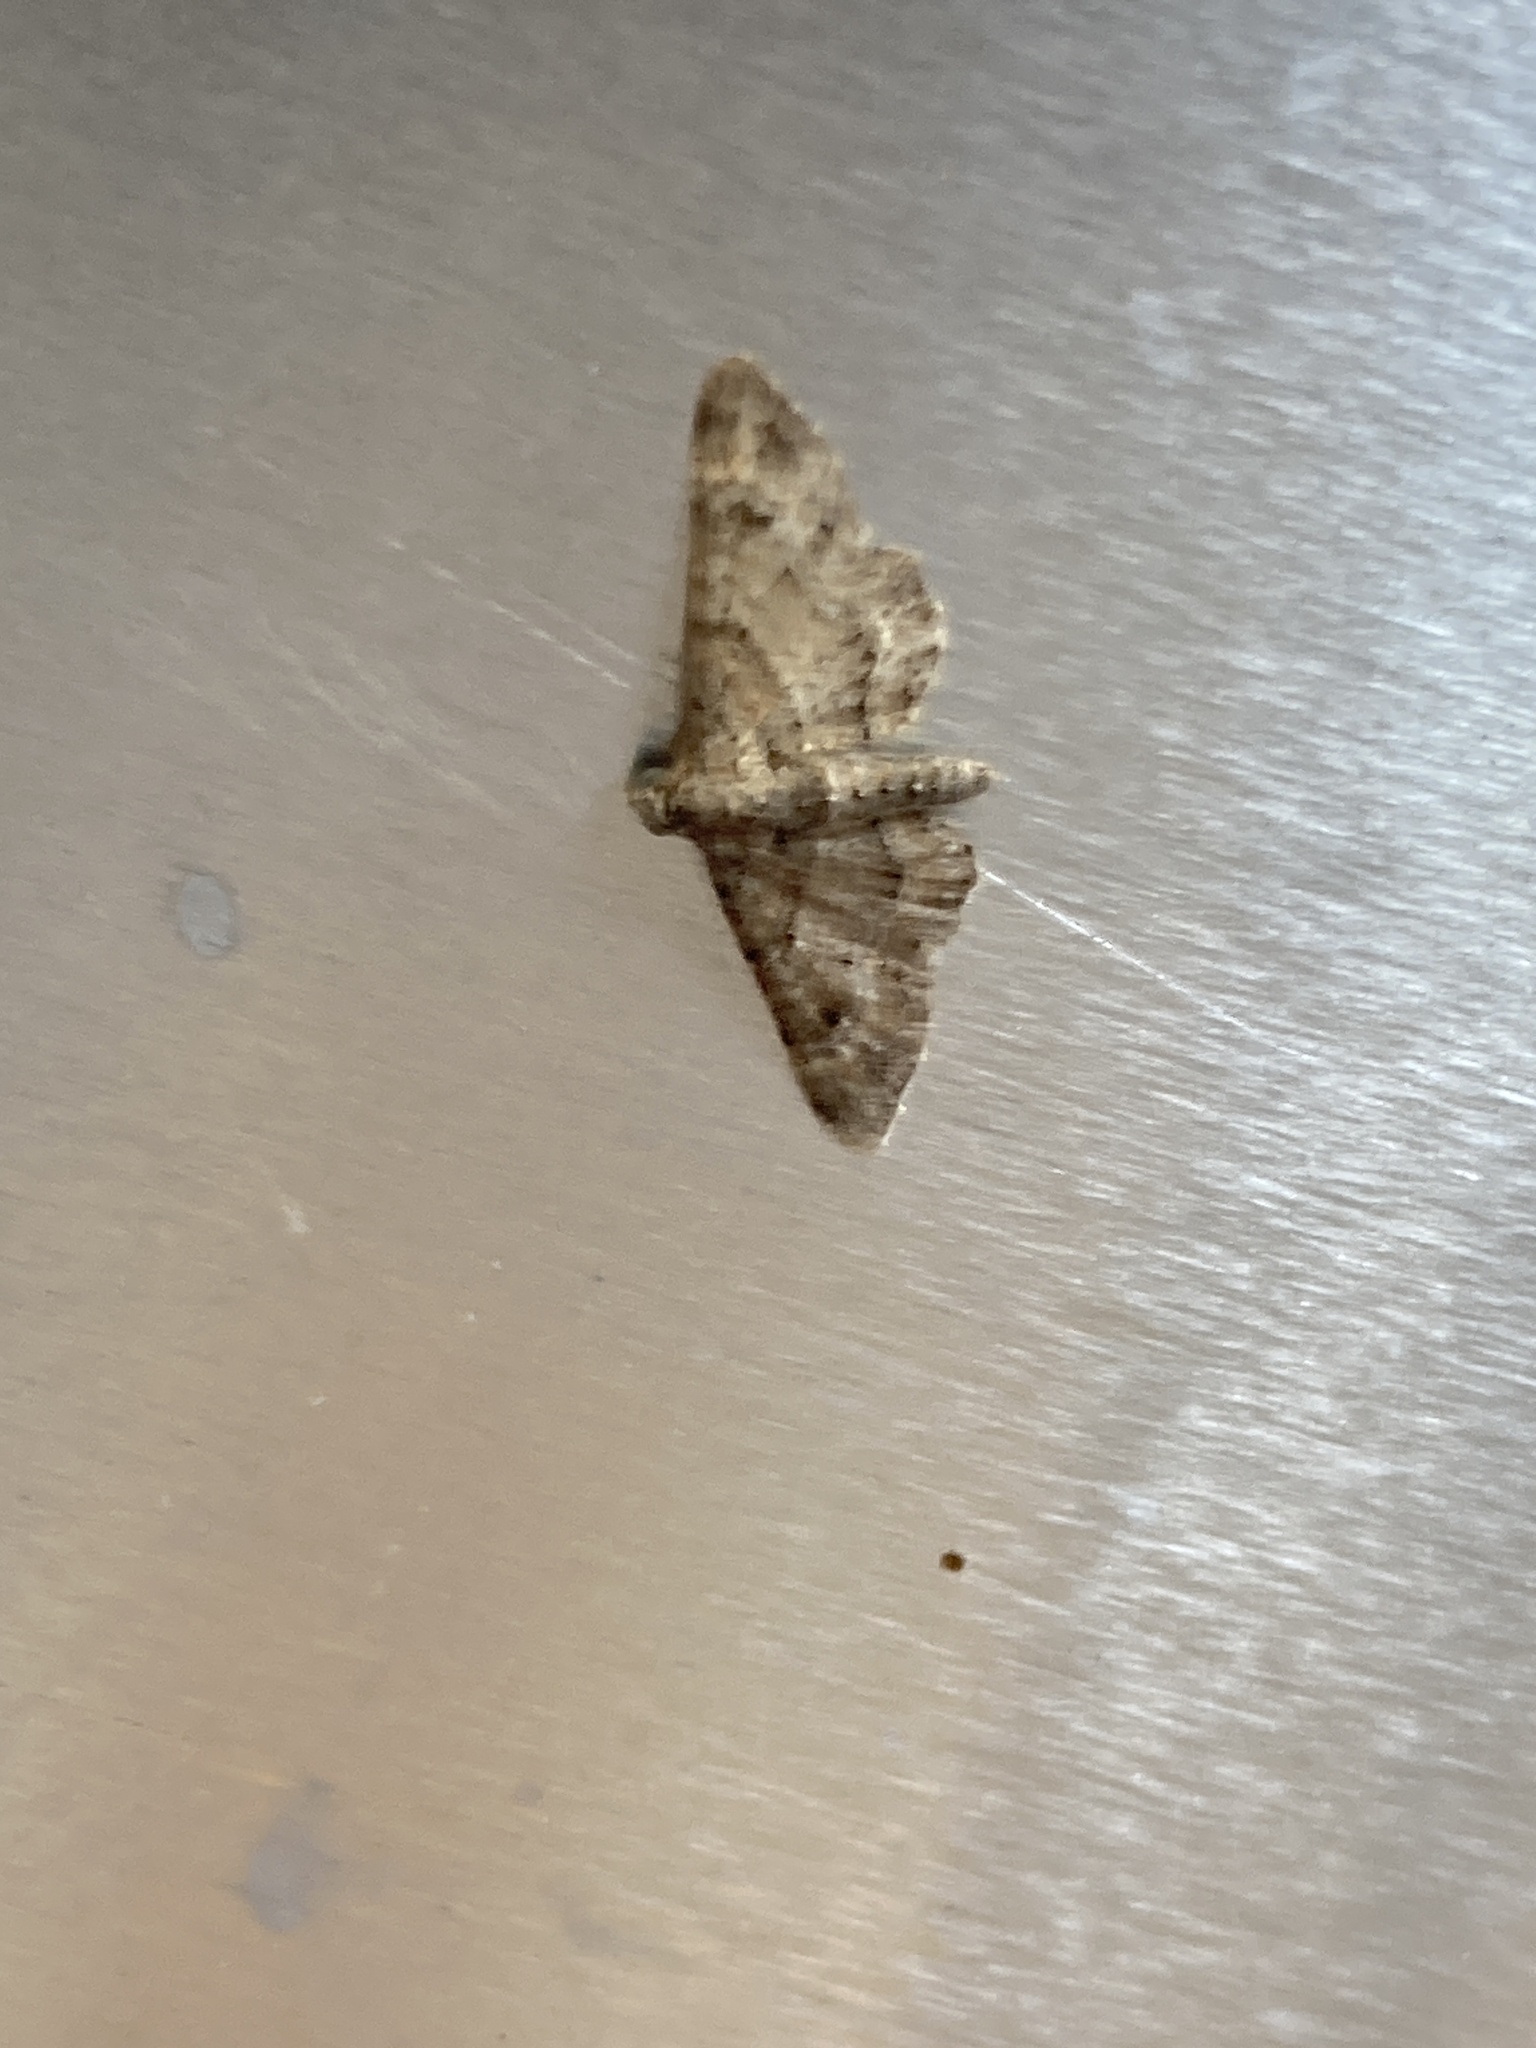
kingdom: Animalia
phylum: Arthropoda
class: Insecta
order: Lepidoptera
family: Geometridae
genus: Gymnoscelis
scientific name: Gymnoscelis rufifasciata
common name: Double-striped pug
